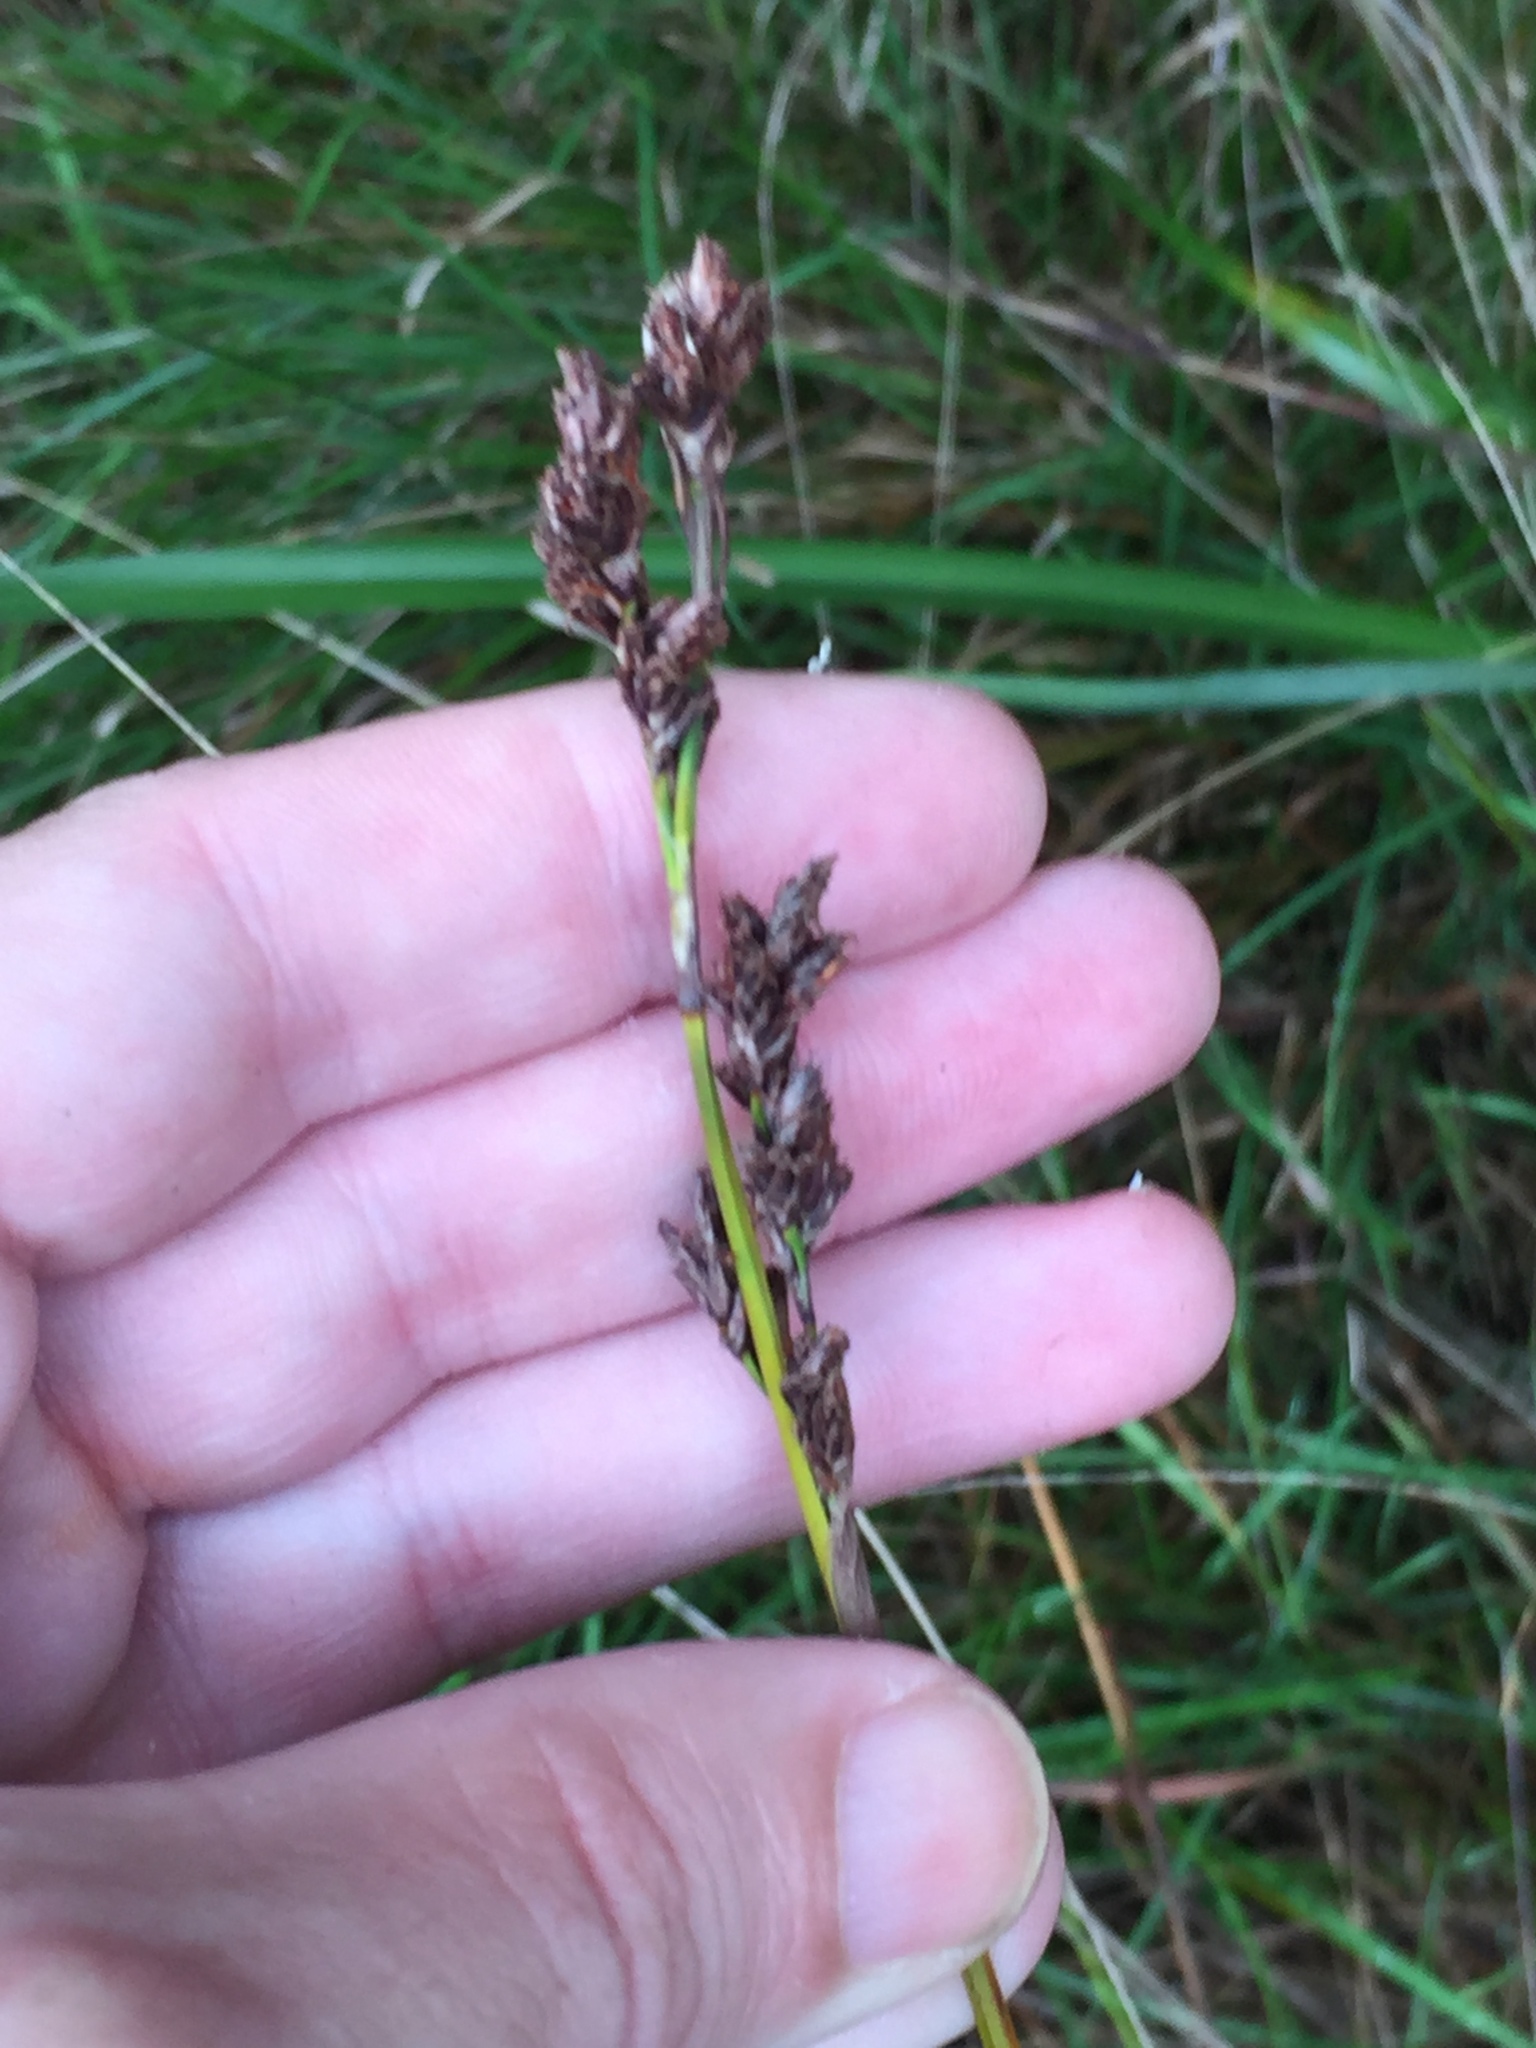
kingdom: Plantae
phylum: Tracheophyta
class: Liliopsida
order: Poales
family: Cyperaceae
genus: Machaerina
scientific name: Machaerina rubiginosa
